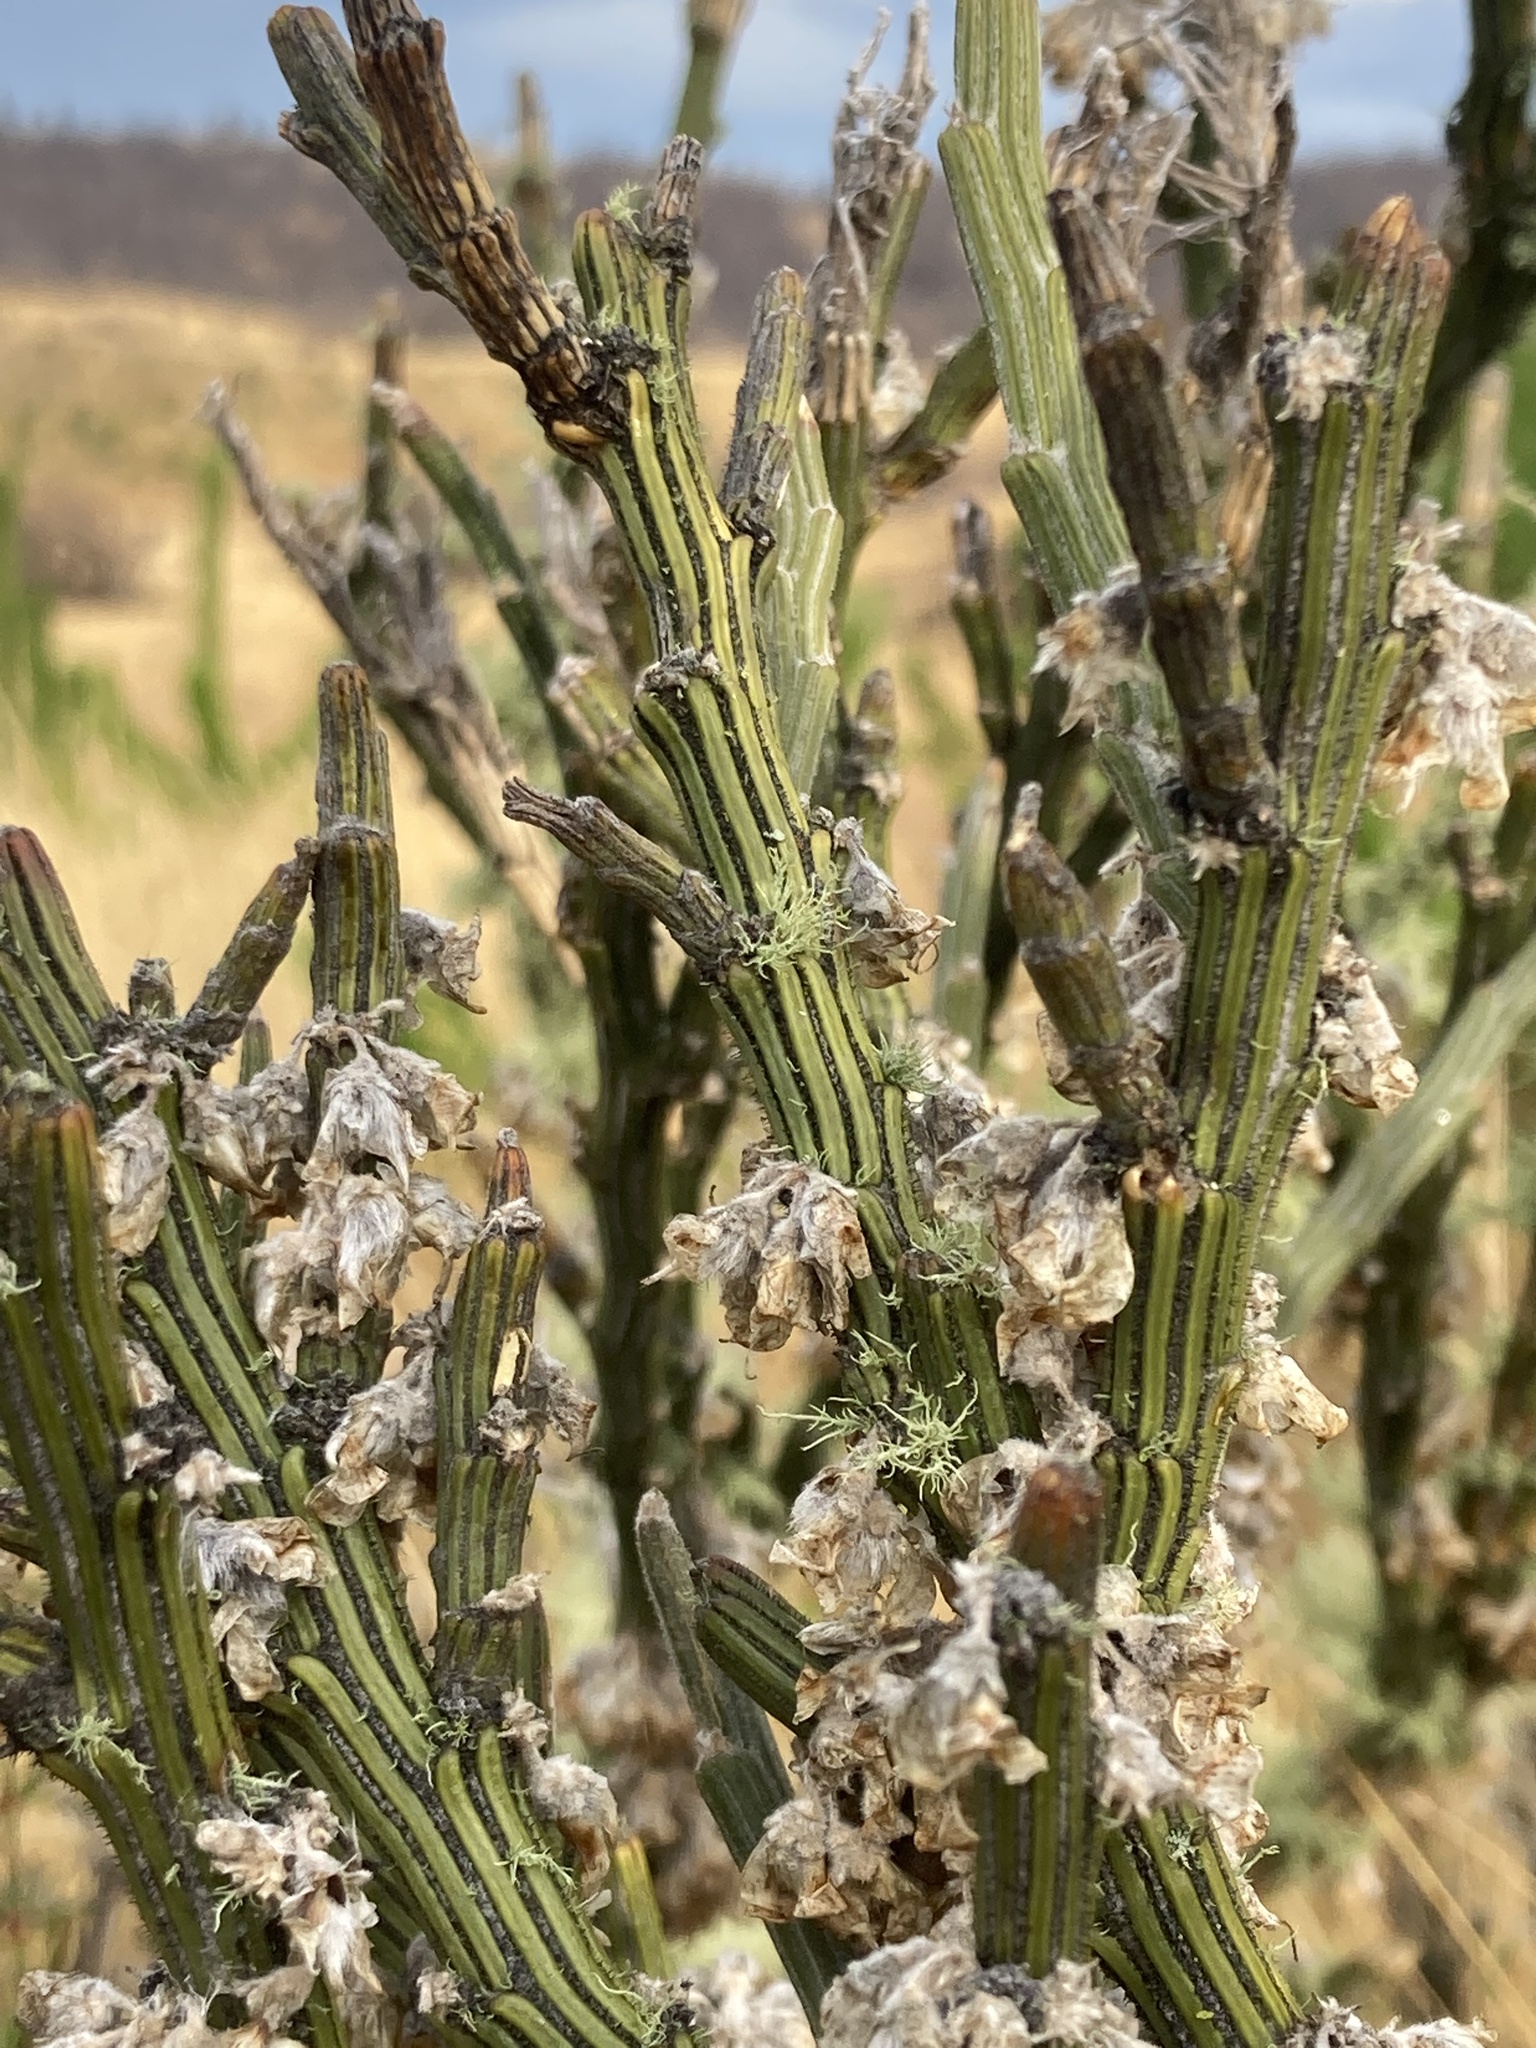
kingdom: Plantae
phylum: Tracheophyta
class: Magnoliopsida
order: Fabales
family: Fabaceae
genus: Carmichaelia
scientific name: Carmichaelia crassicaulis
